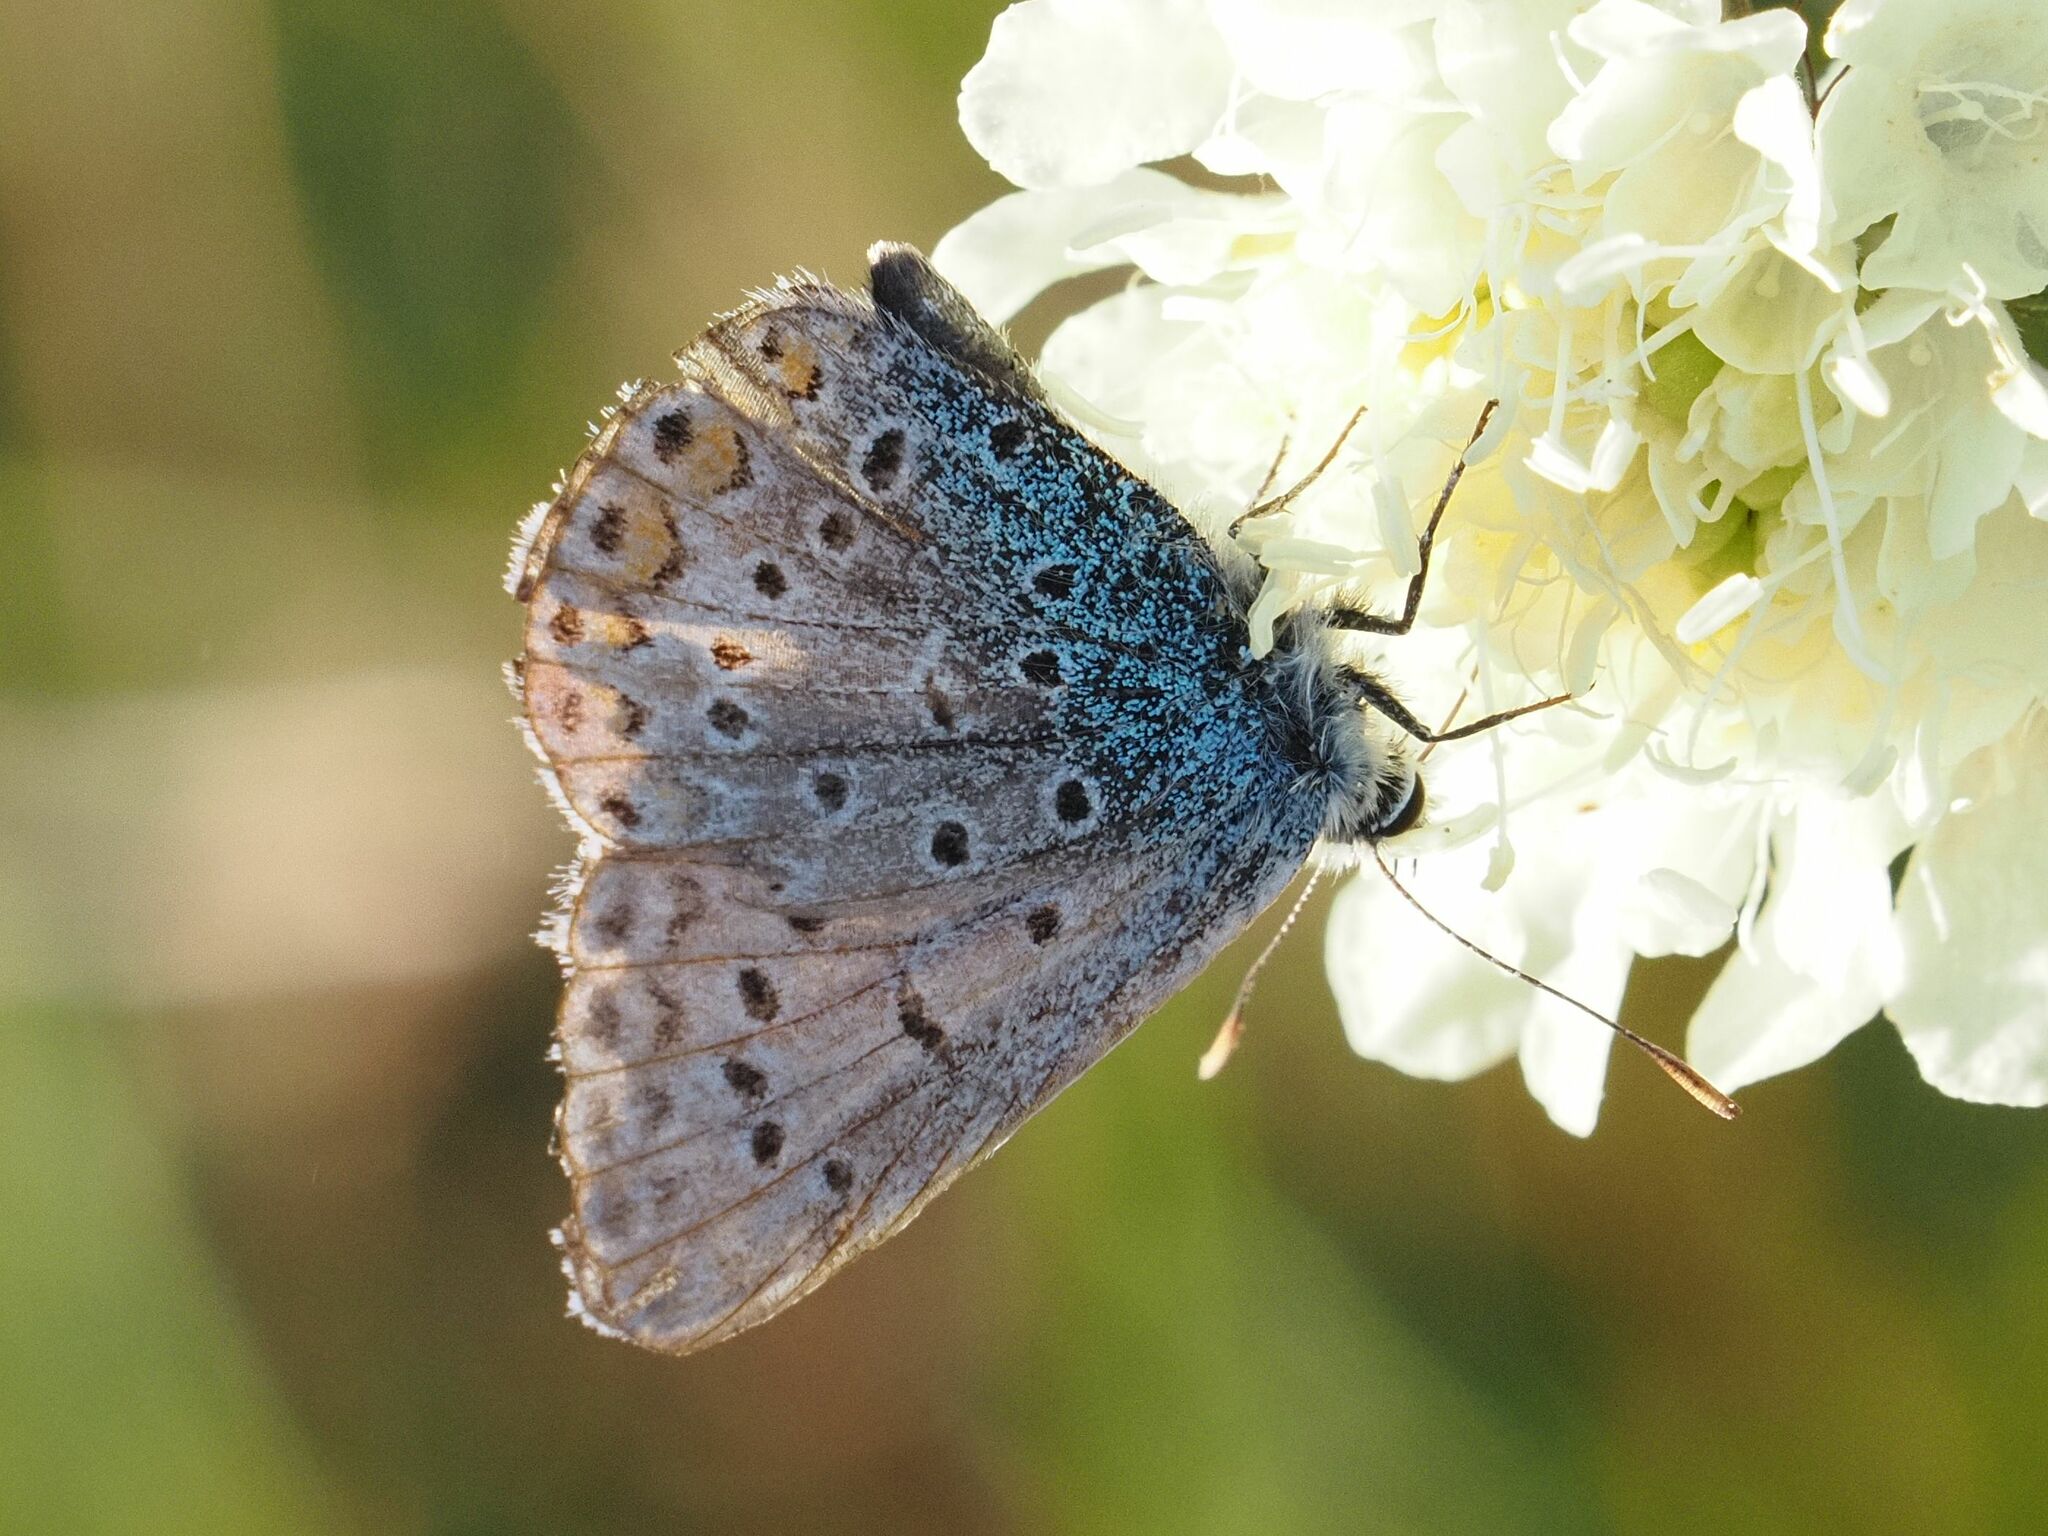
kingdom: Animalia
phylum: Arthropoda
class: Insecta
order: Lepidoptera
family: Lycaenidae
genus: Polyommatus
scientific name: Polyommatus icarus
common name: Common blue
